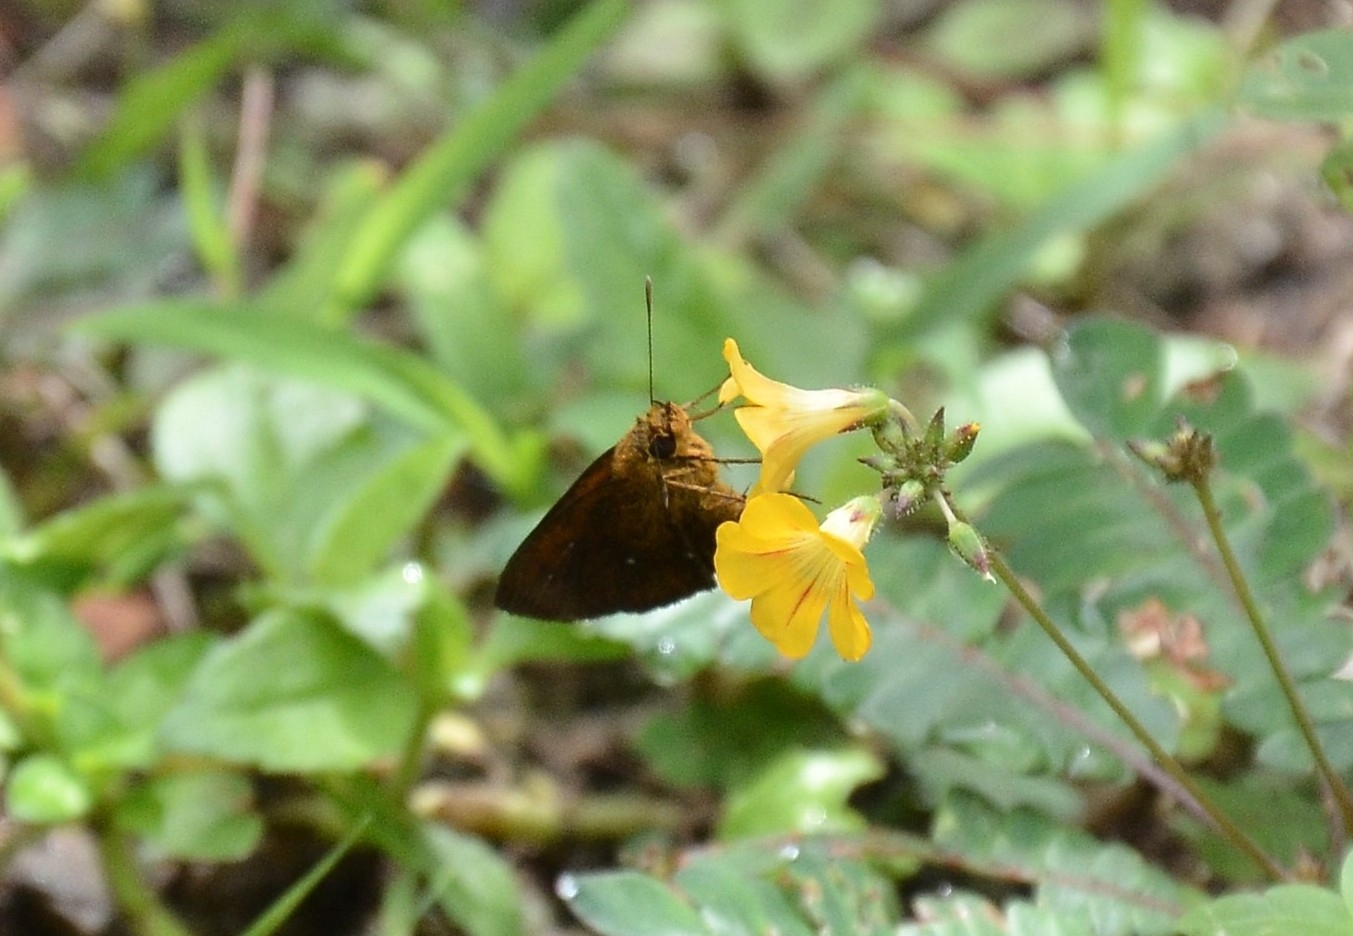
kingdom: Animalia
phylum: Arthropoda
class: Insecta
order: Lepidoptera
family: Hesperiidae
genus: Iambrix
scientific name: Iambrix salsala
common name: Chestnut bob
